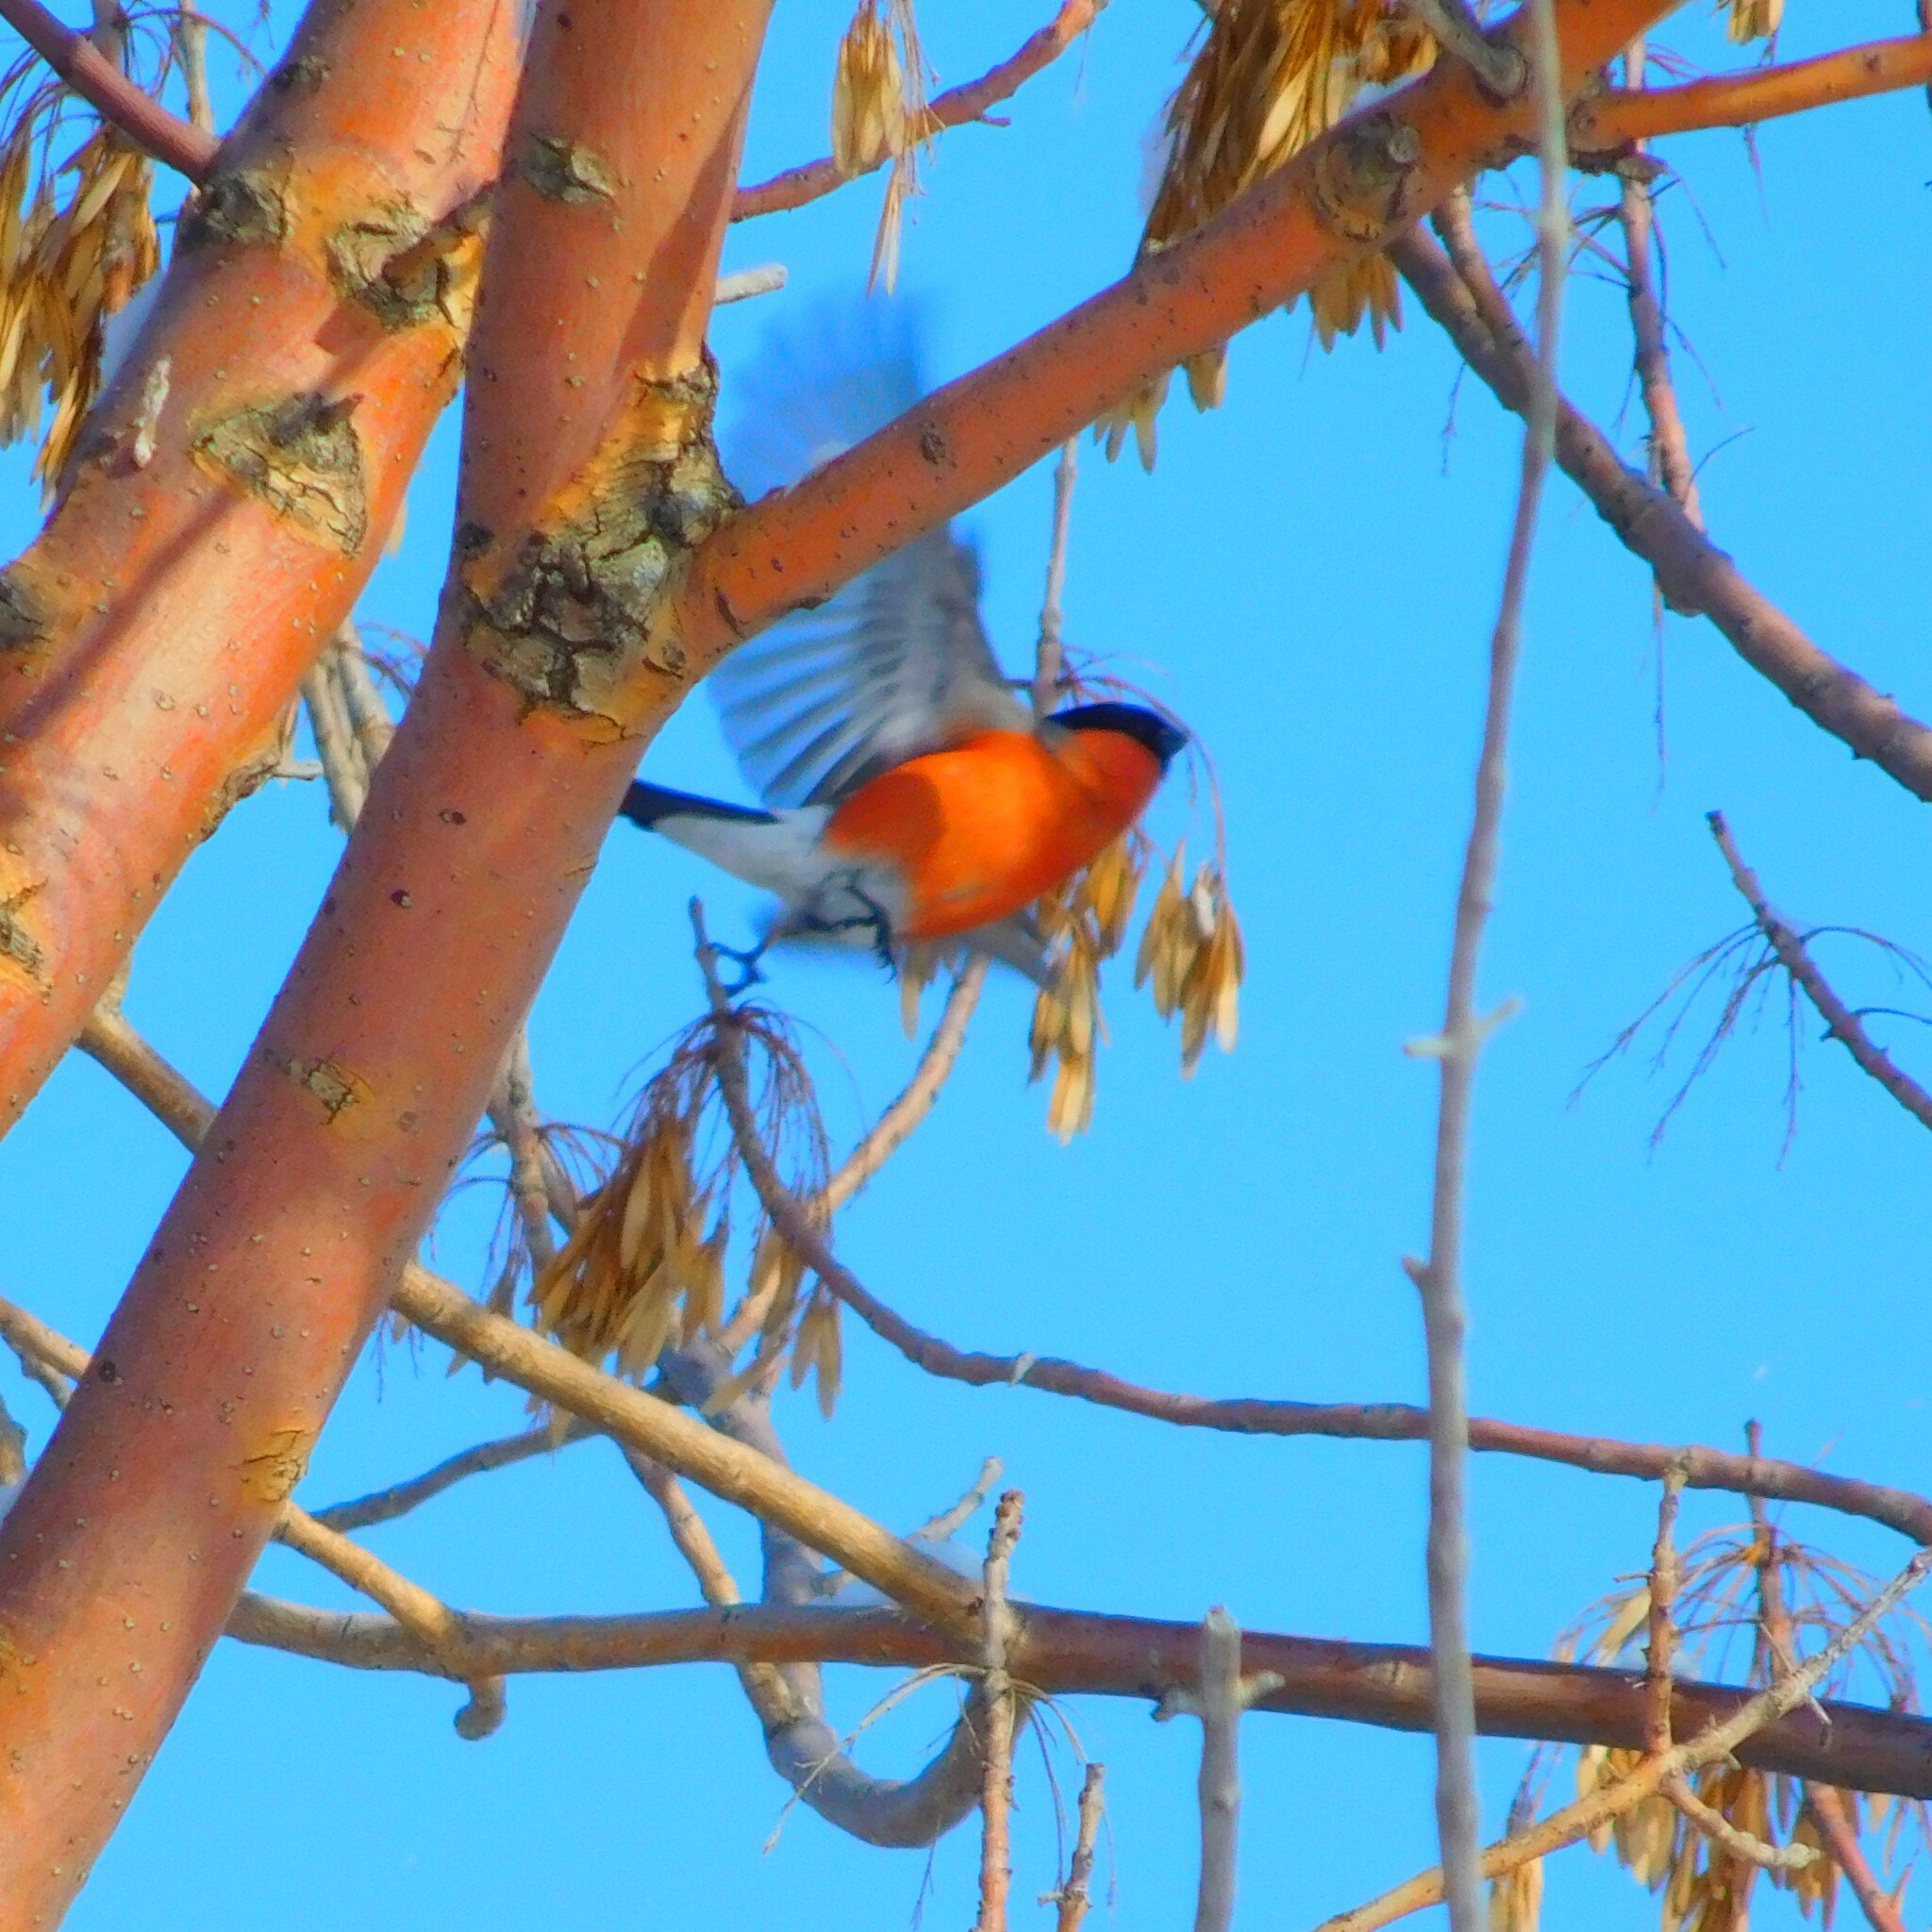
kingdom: Animalia
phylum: Chordata
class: Aves
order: Passeriformes
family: Fringillidae
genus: Pyrrhula
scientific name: Pyrrhula pyrrhula
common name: Eurasian bullfinch
